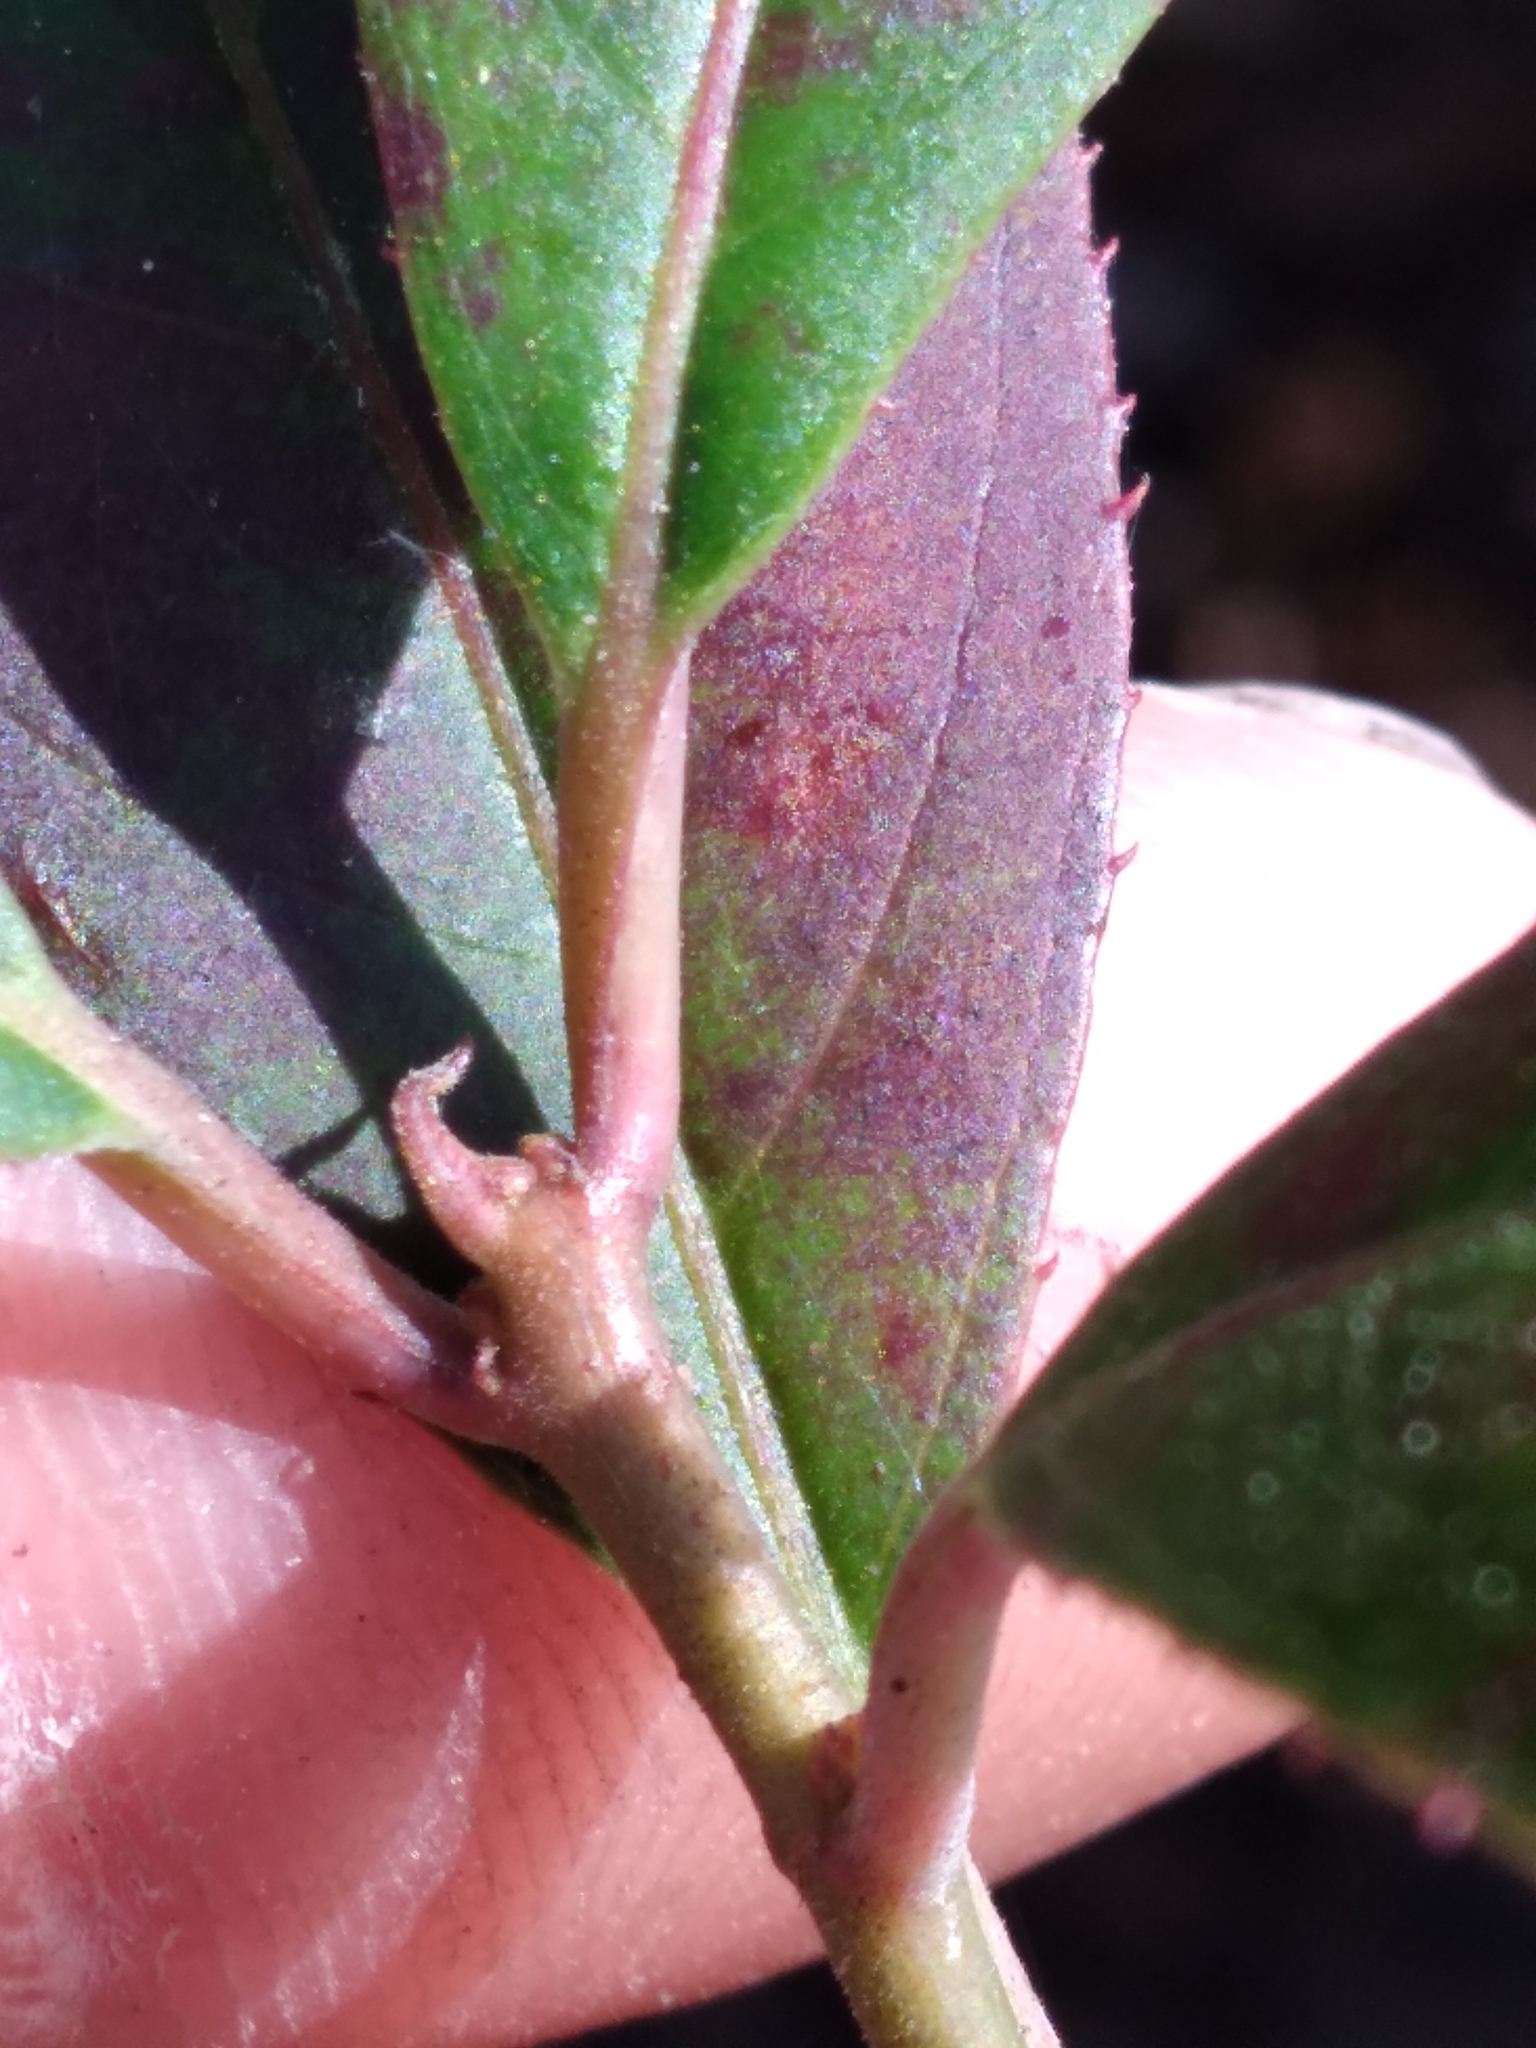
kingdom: Plantae
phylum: Tracheophyta
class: Magnoliopsida
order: Saxifragales
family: Iteaceae
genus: Itea
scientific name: Itea virginica
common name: Sweetspire
